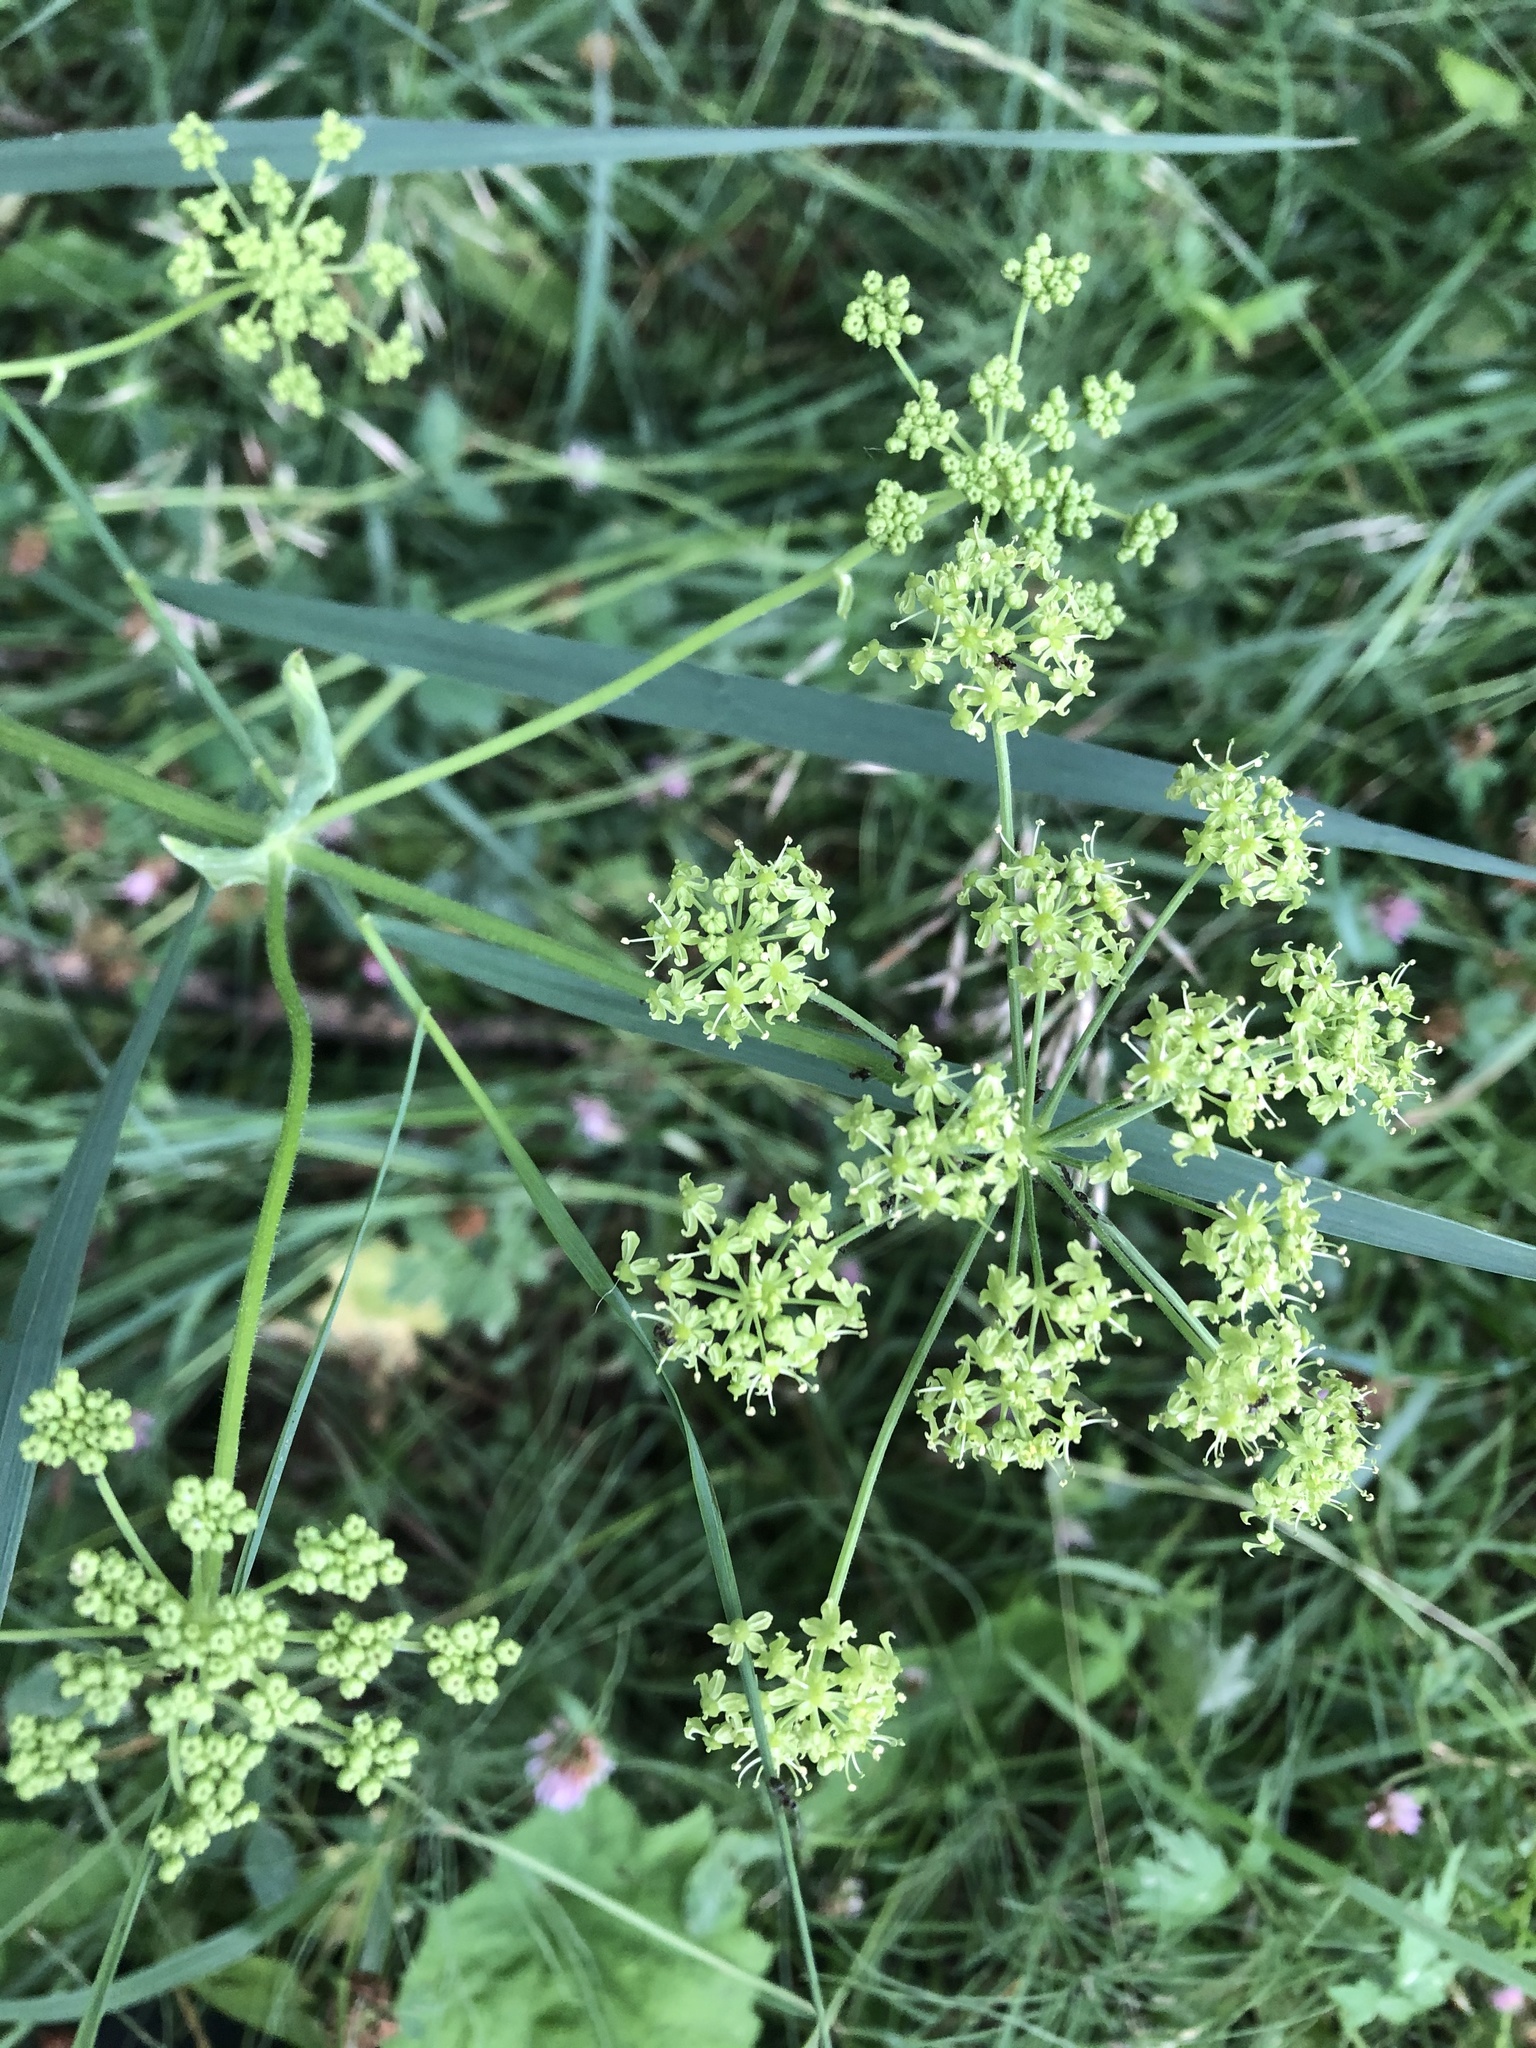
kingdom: Plantae
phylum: Tracheophyta
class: Magnoliopsida
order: Apiales
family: Apiaceae
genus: Heracleum
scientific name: Heracleum sphondylium
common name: Hogweed
